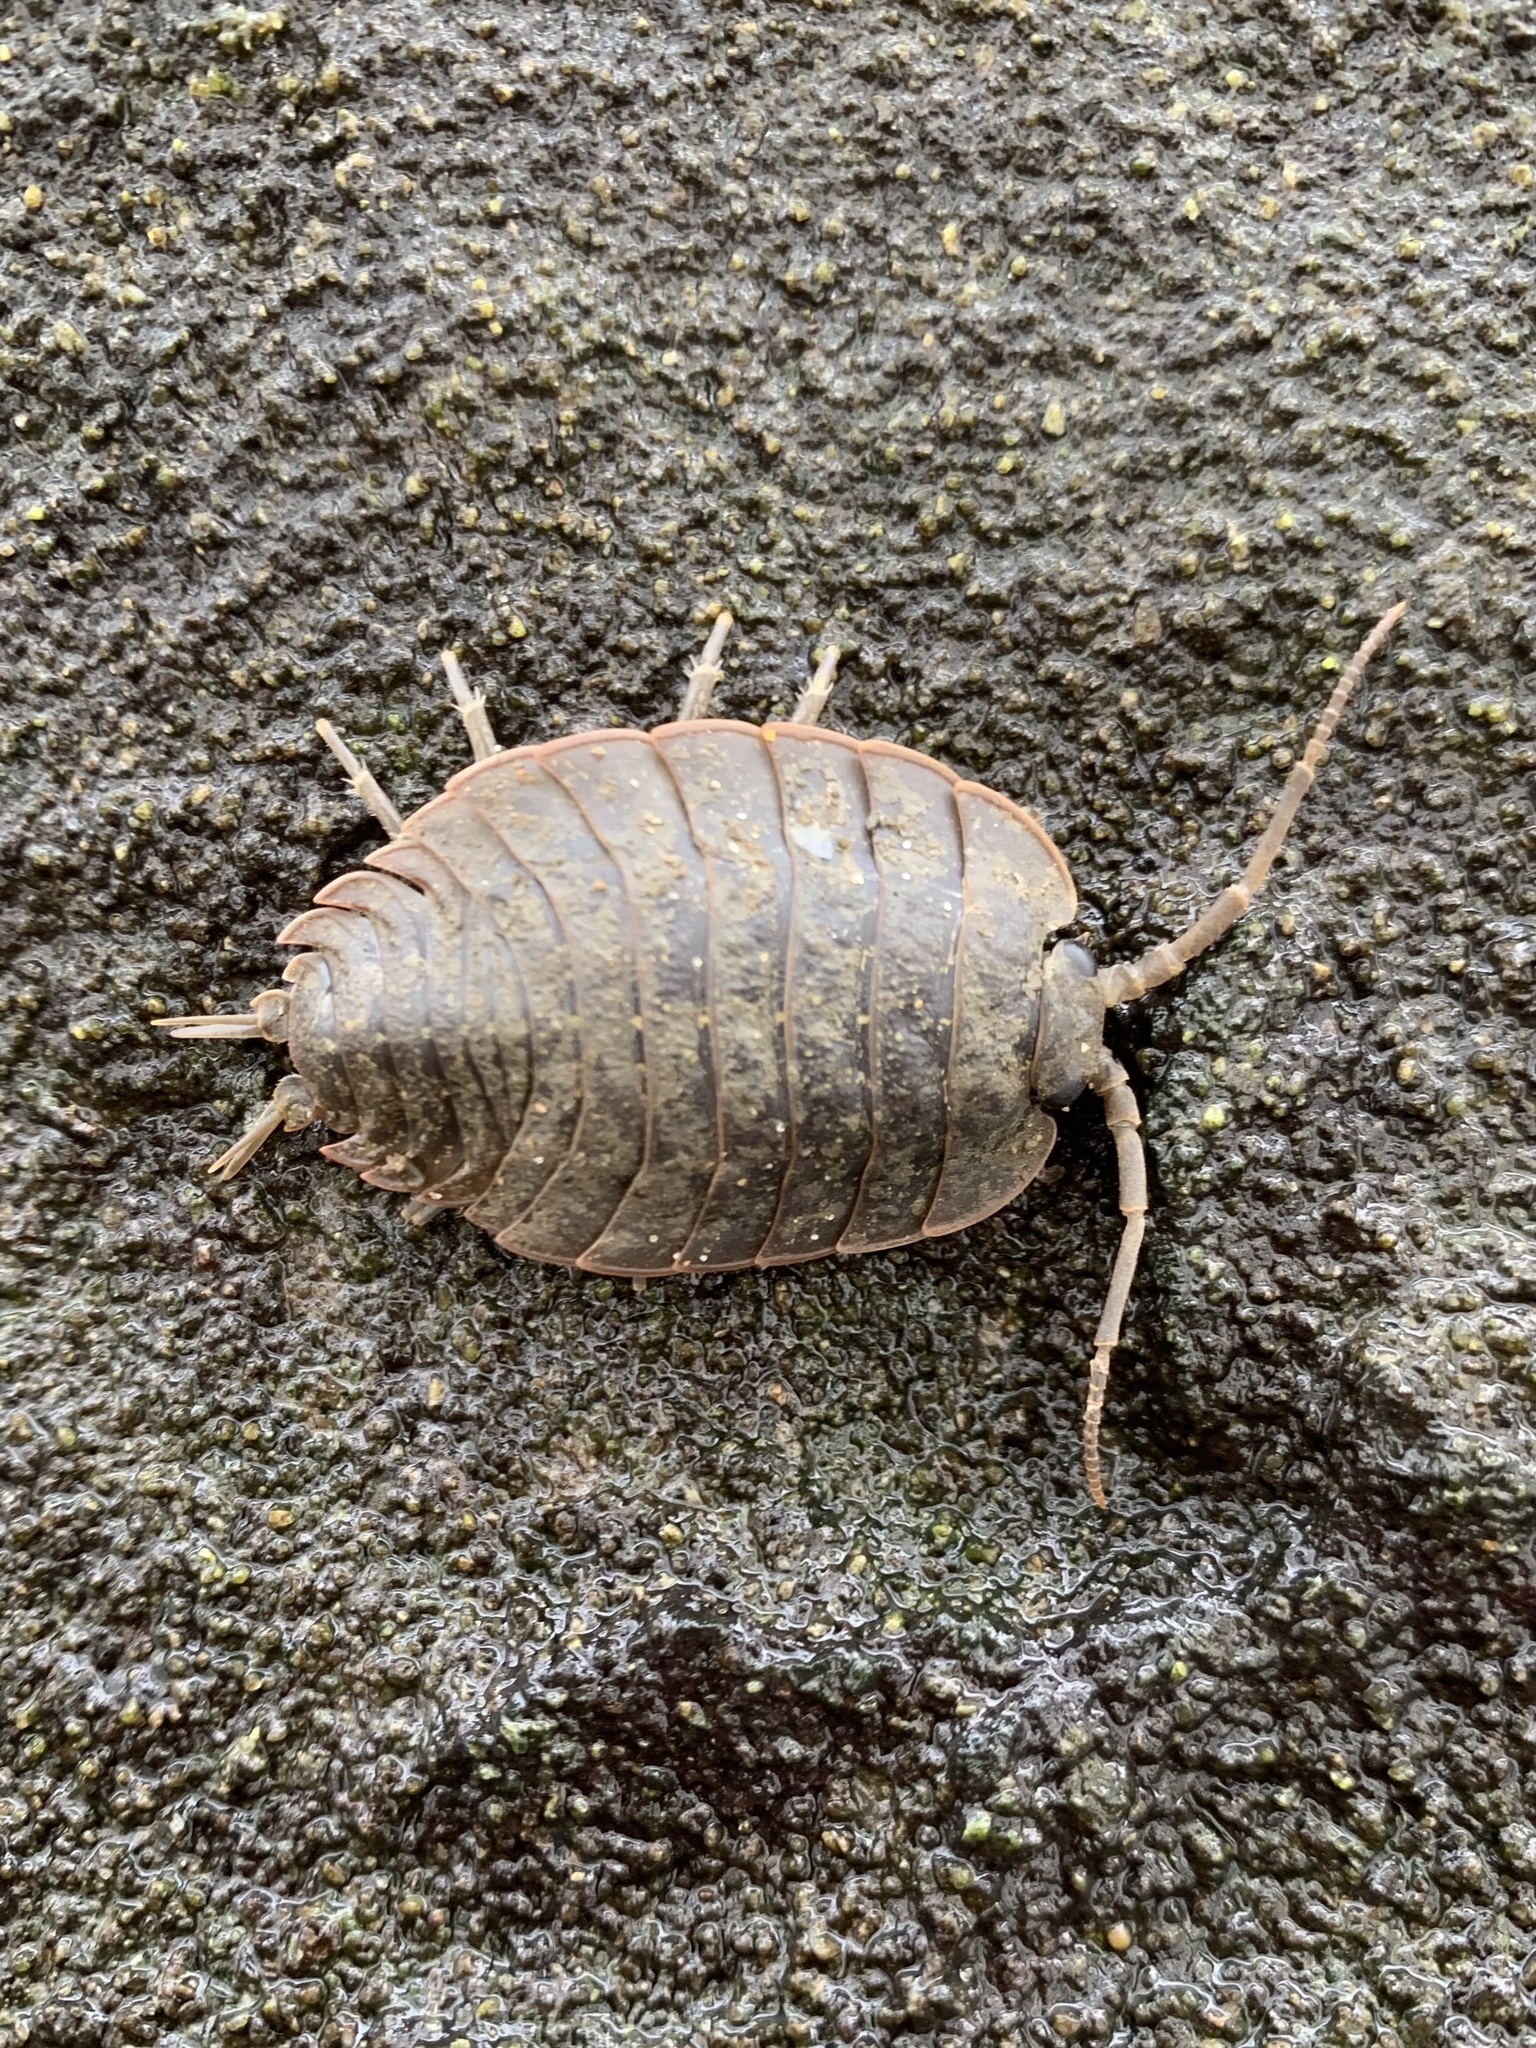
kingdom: Animalia
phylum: Arthropoda
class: Malacostraca
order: Isopoda
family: Ligiidae
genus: Ligia
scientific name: Ligia pallasii
